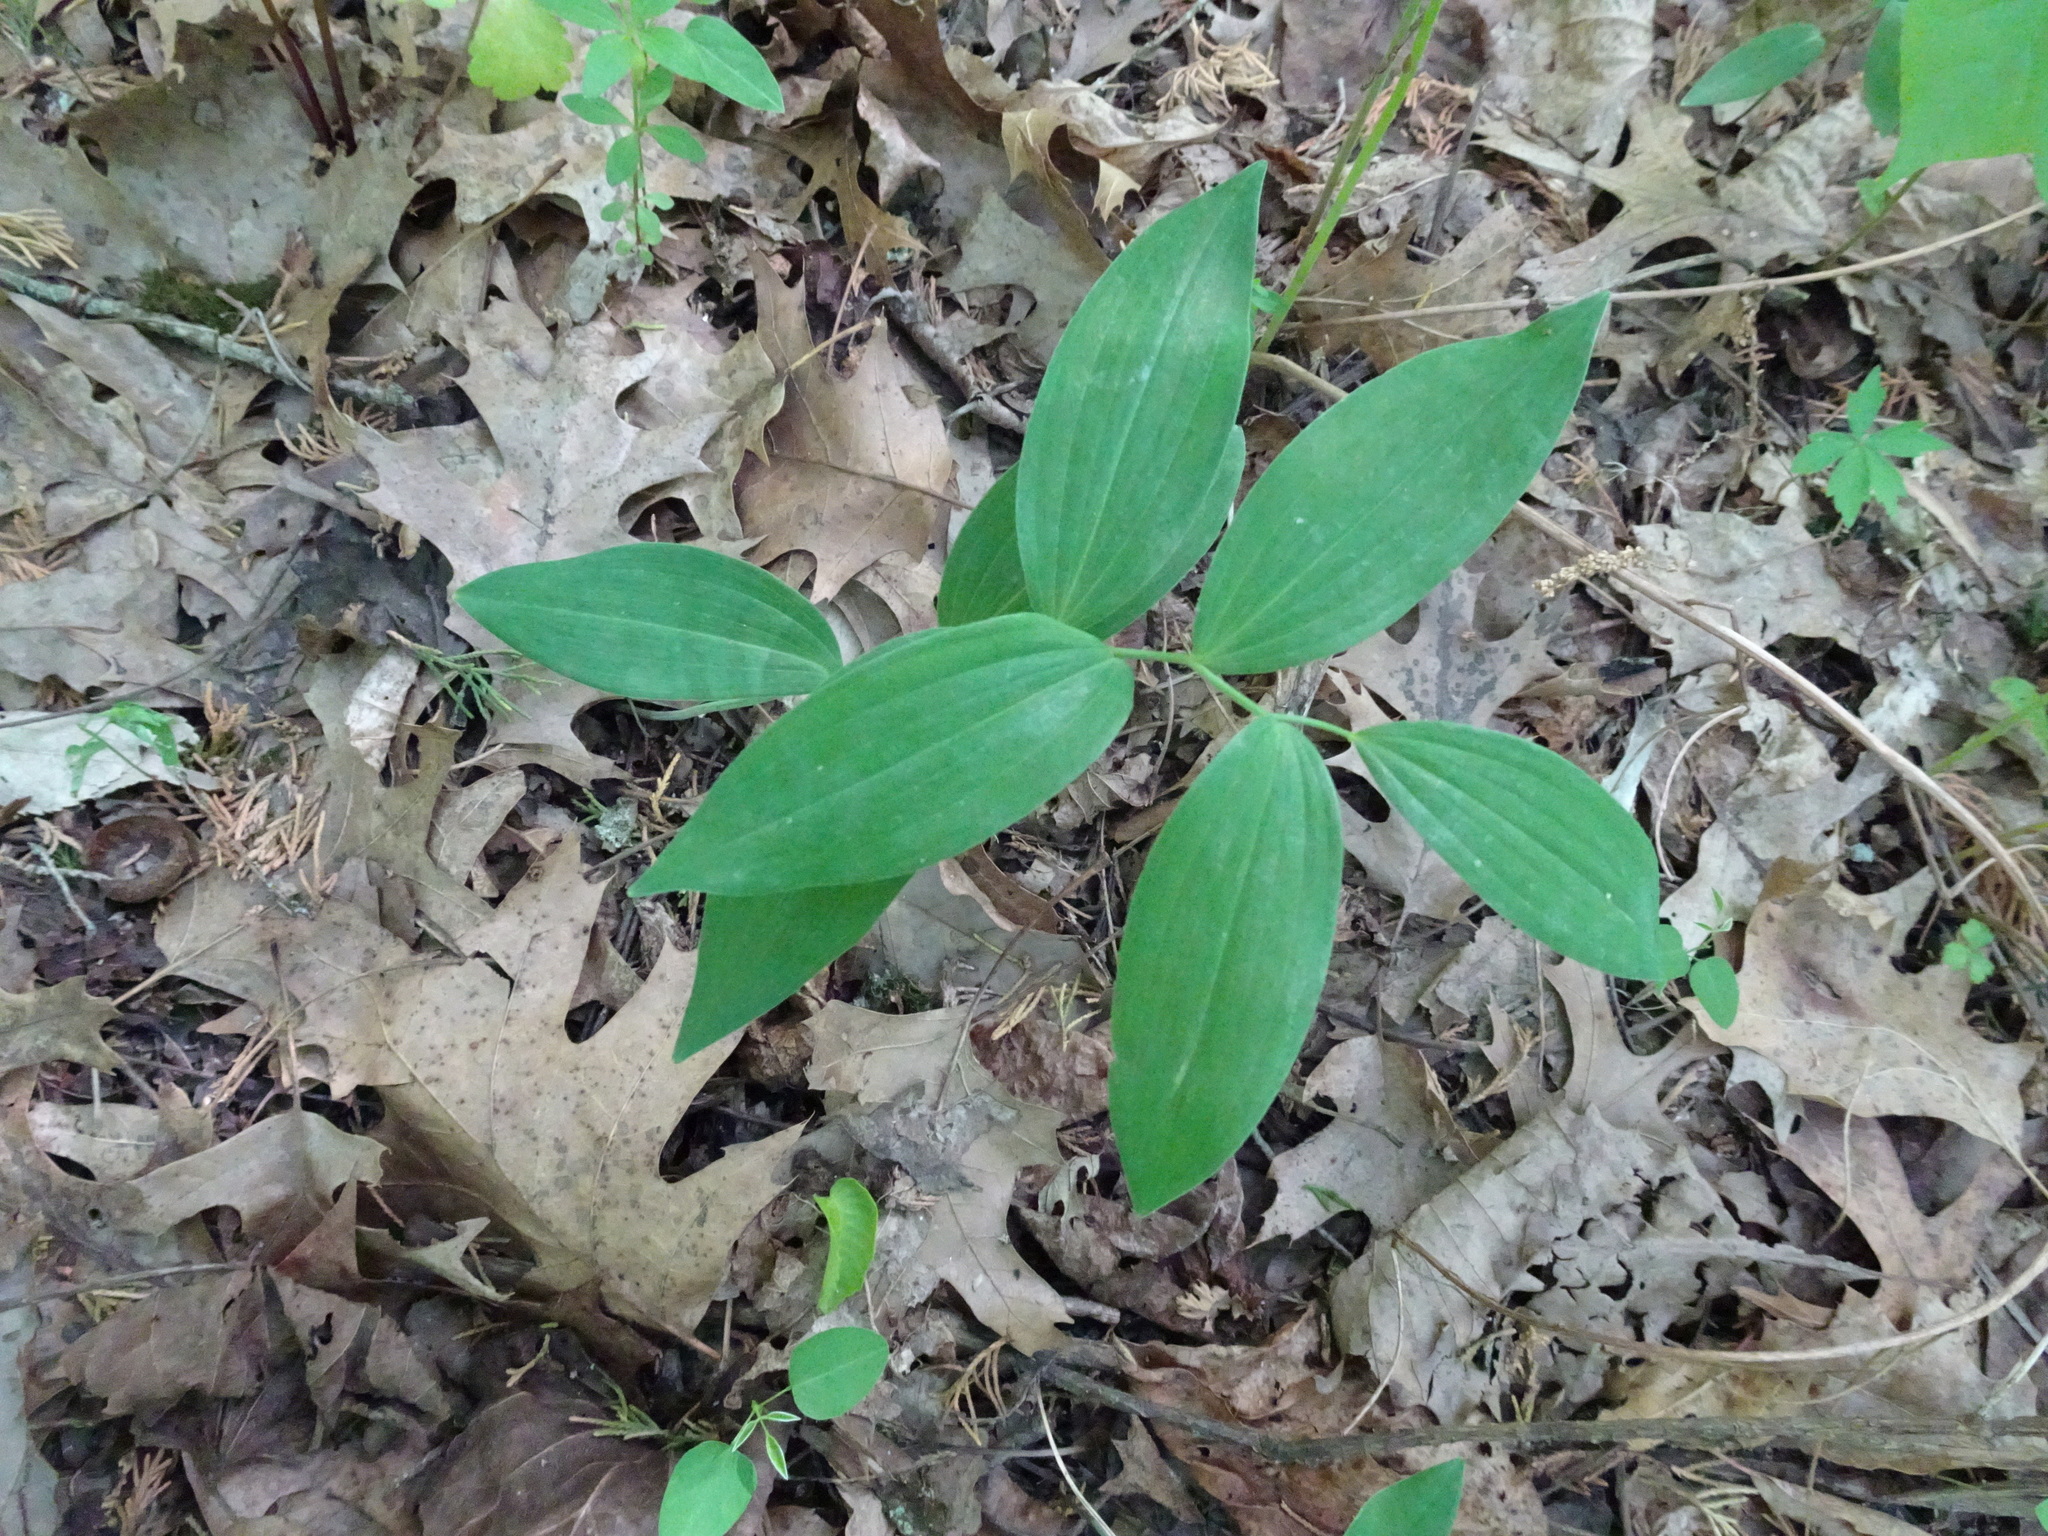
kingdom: Plantae
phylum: Tracheophyta
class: Liliopsida
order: Asparagales
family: Asparagaceae
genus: Polygonatum
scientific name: Polygonatum biflorum
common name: American solomon's-seal
